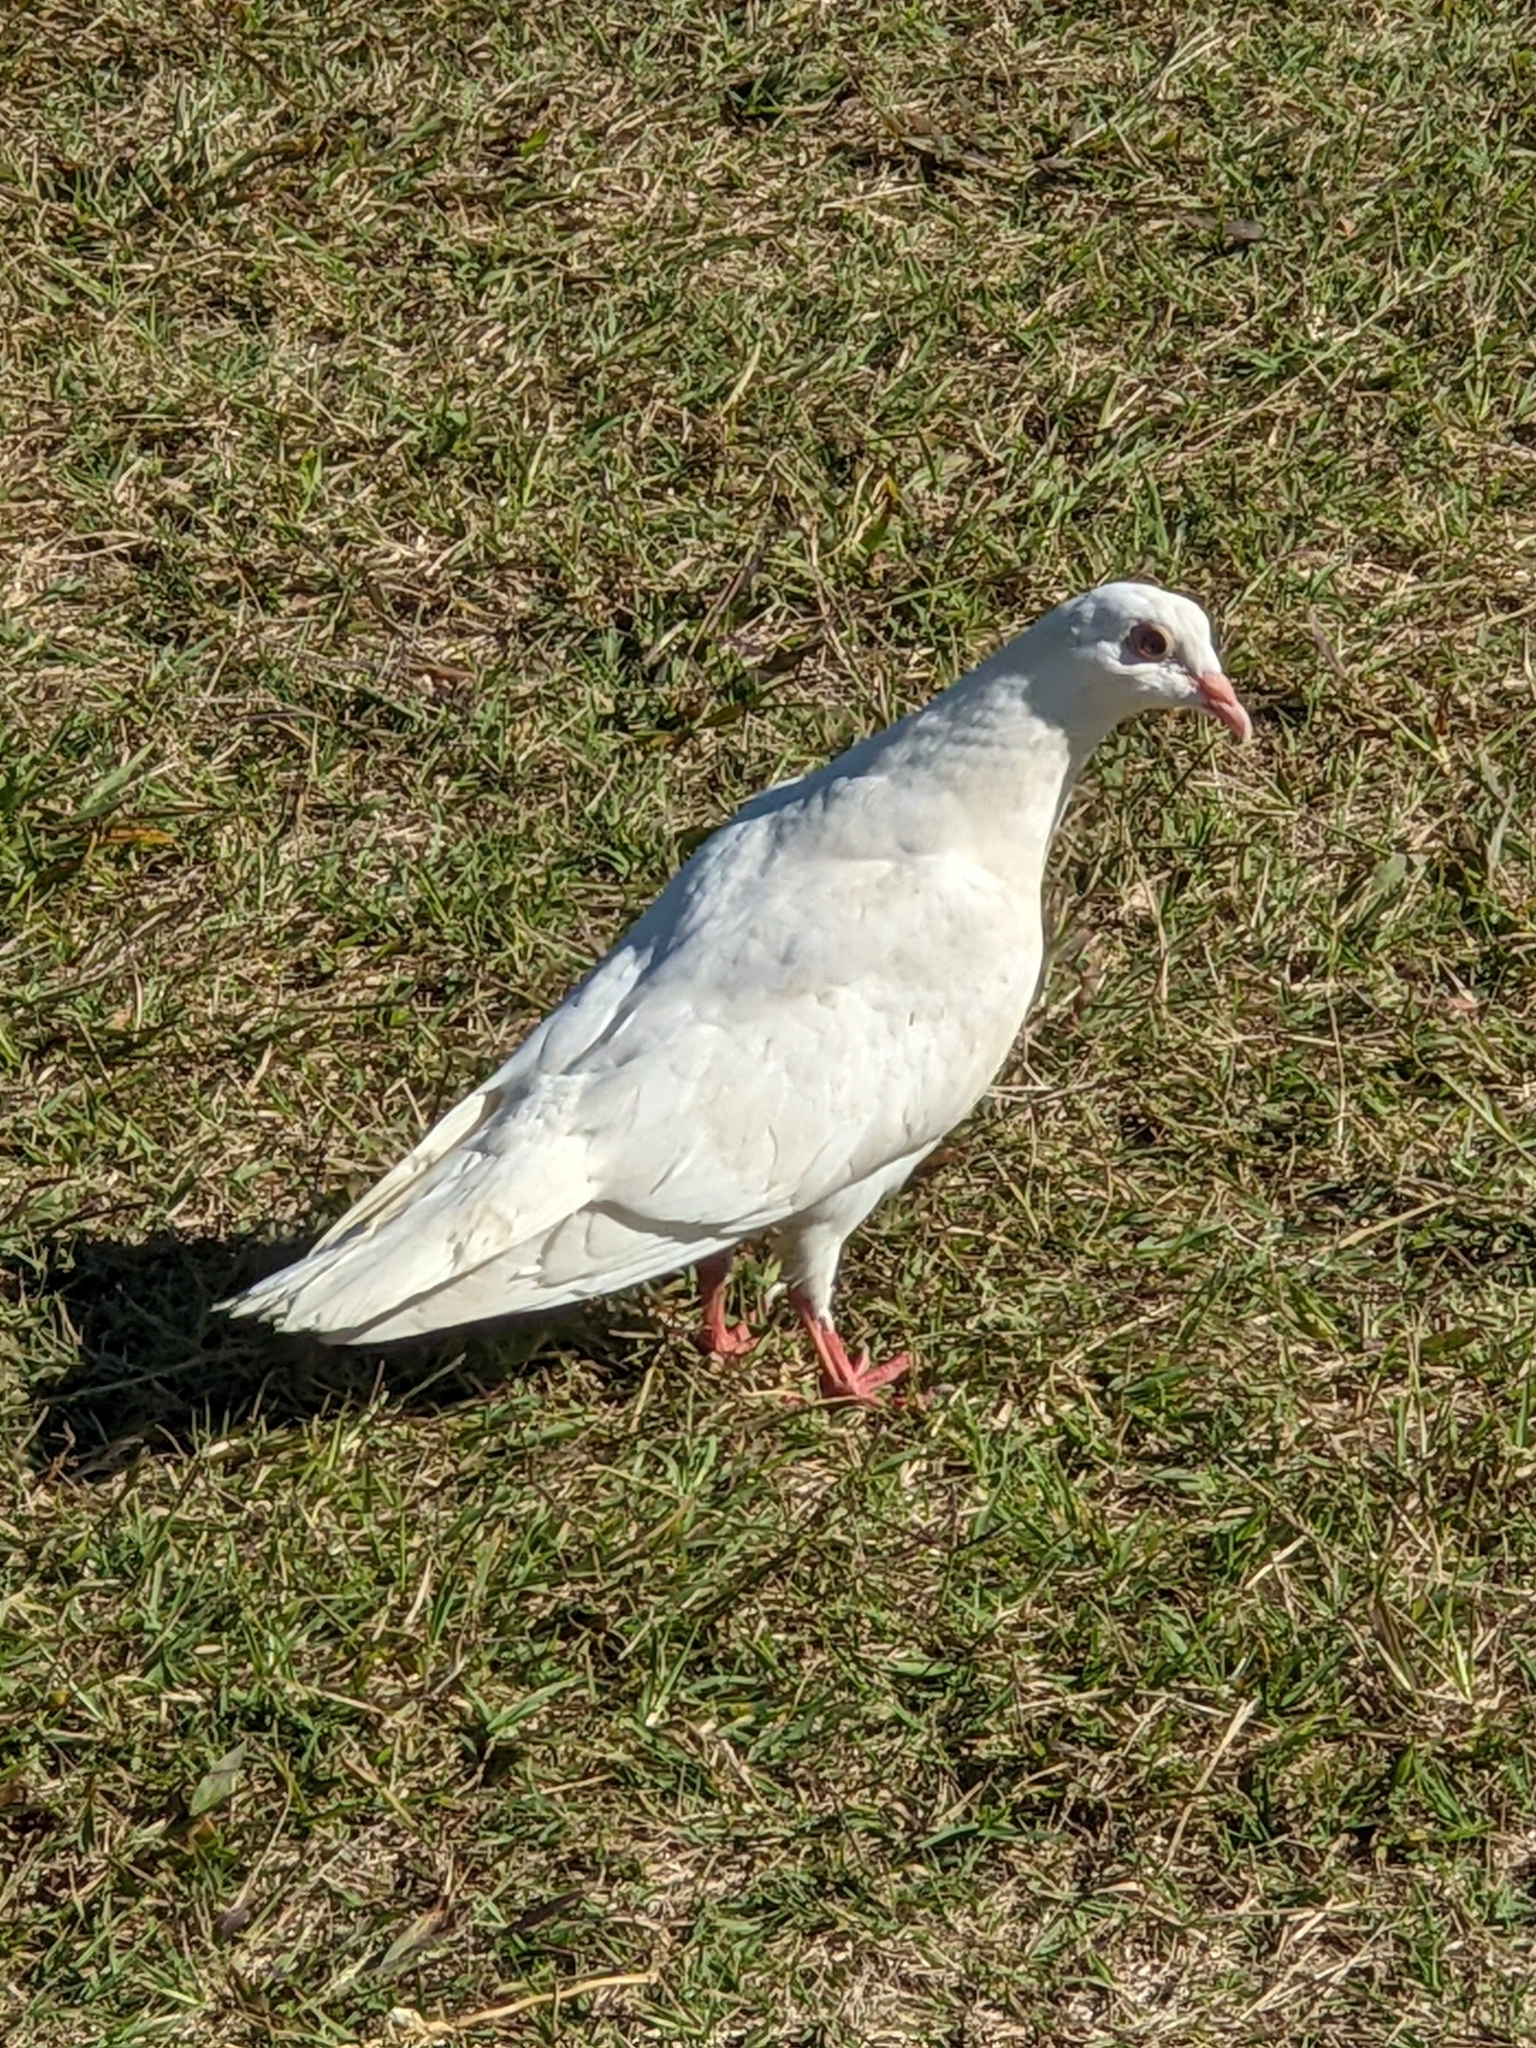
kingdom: Animalia
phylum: Chordata
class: Aves
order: Columbiformes
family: Columbidae
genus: Columba
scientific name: Columba livia
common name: Rock pigeon
